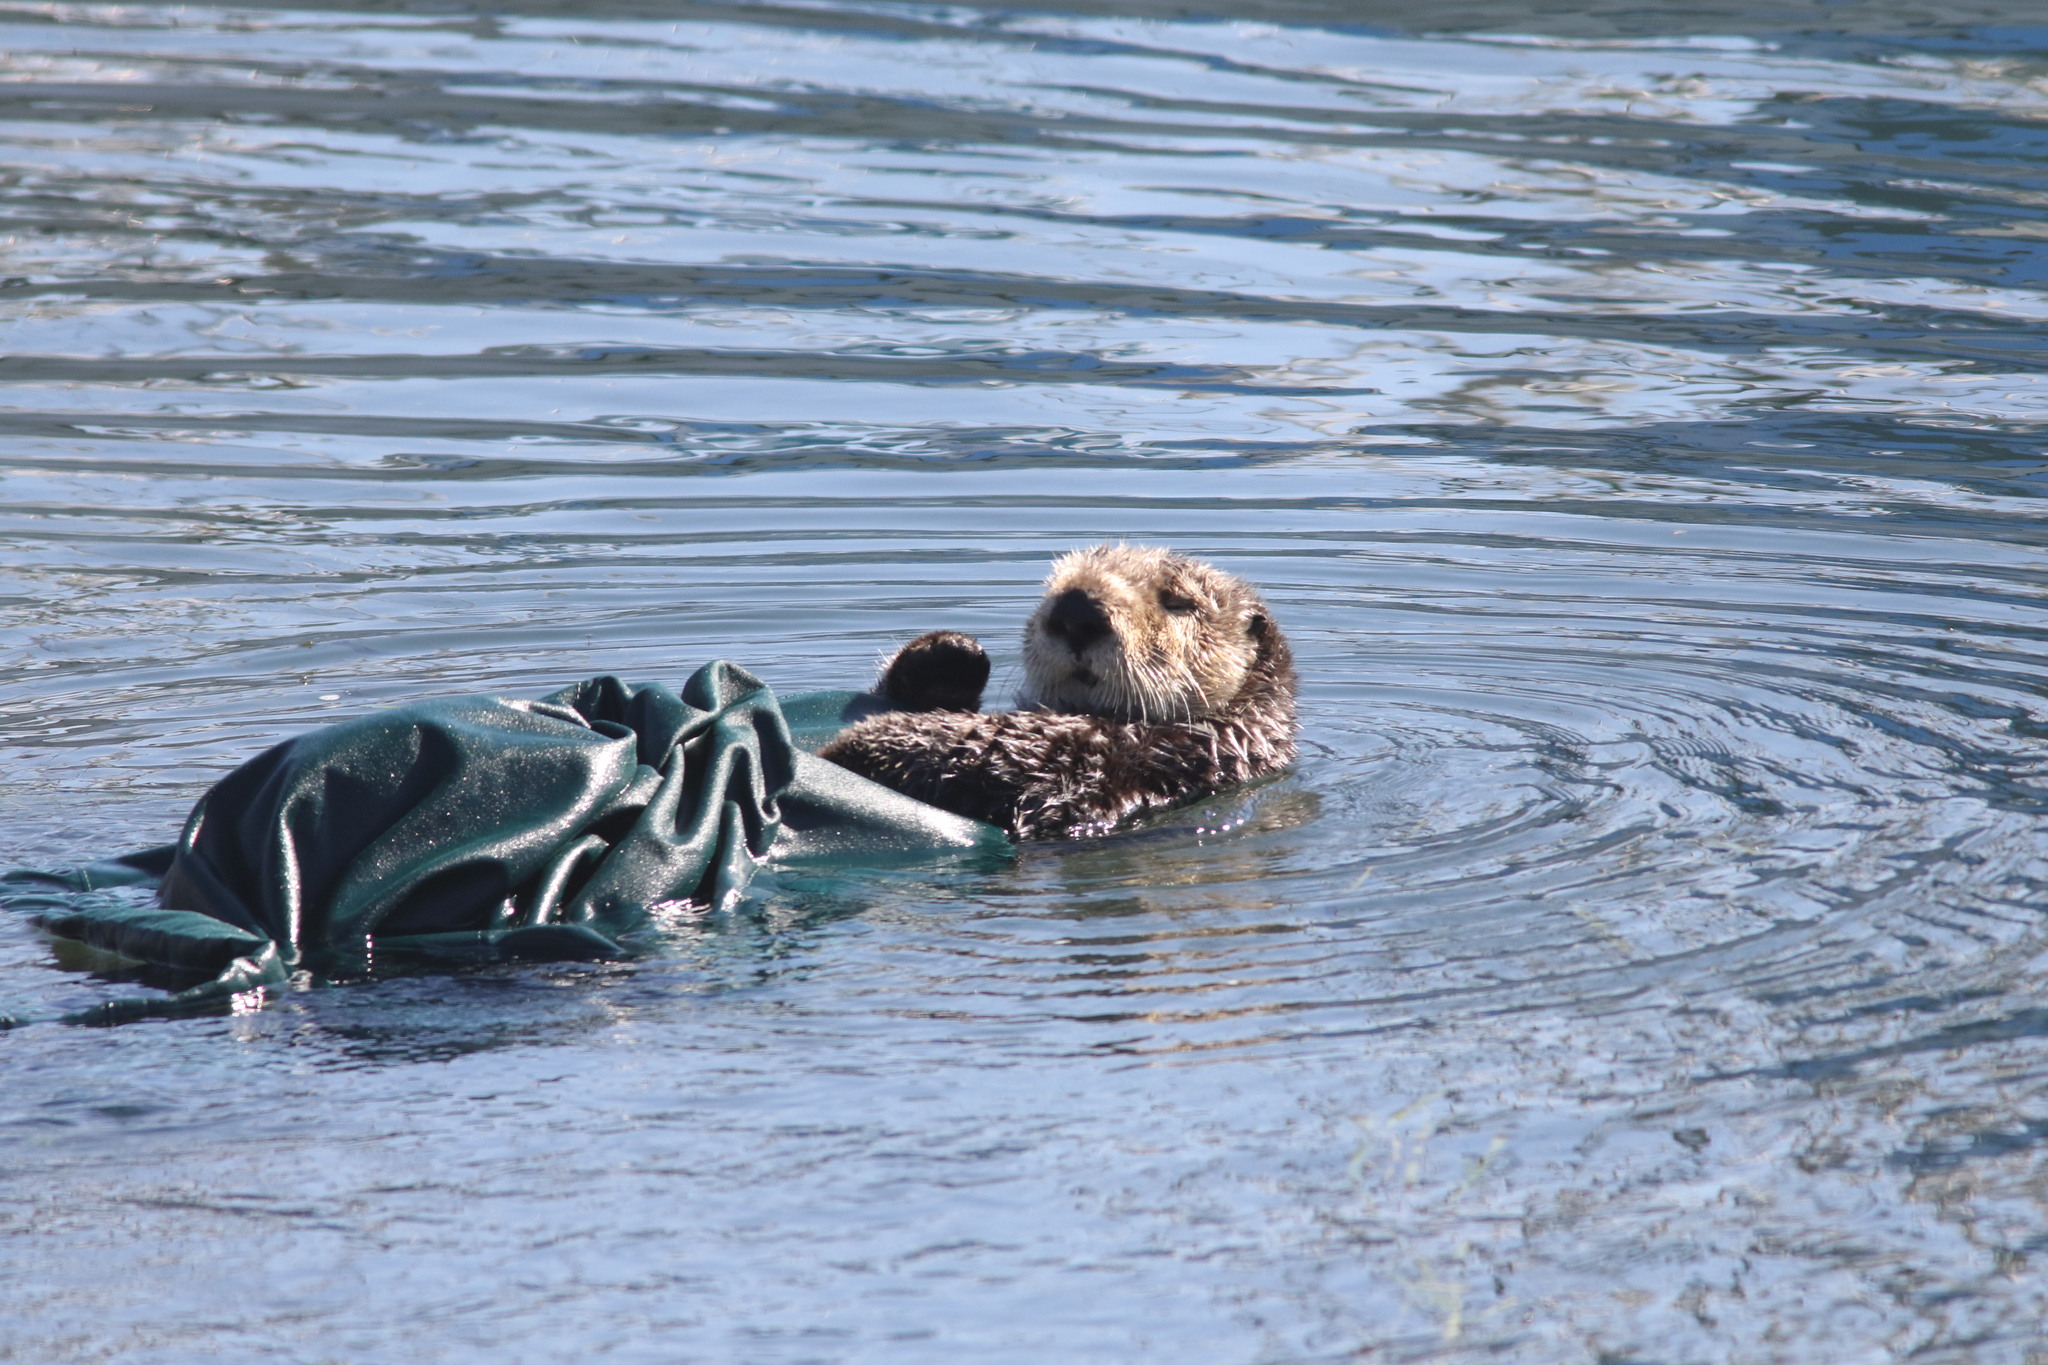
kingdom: Animalia
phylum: Chordata
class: Mammalia
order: Carnivora
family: Mustelidae
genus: Enhydra
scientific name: Enhydra lutris
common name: Sea otter
